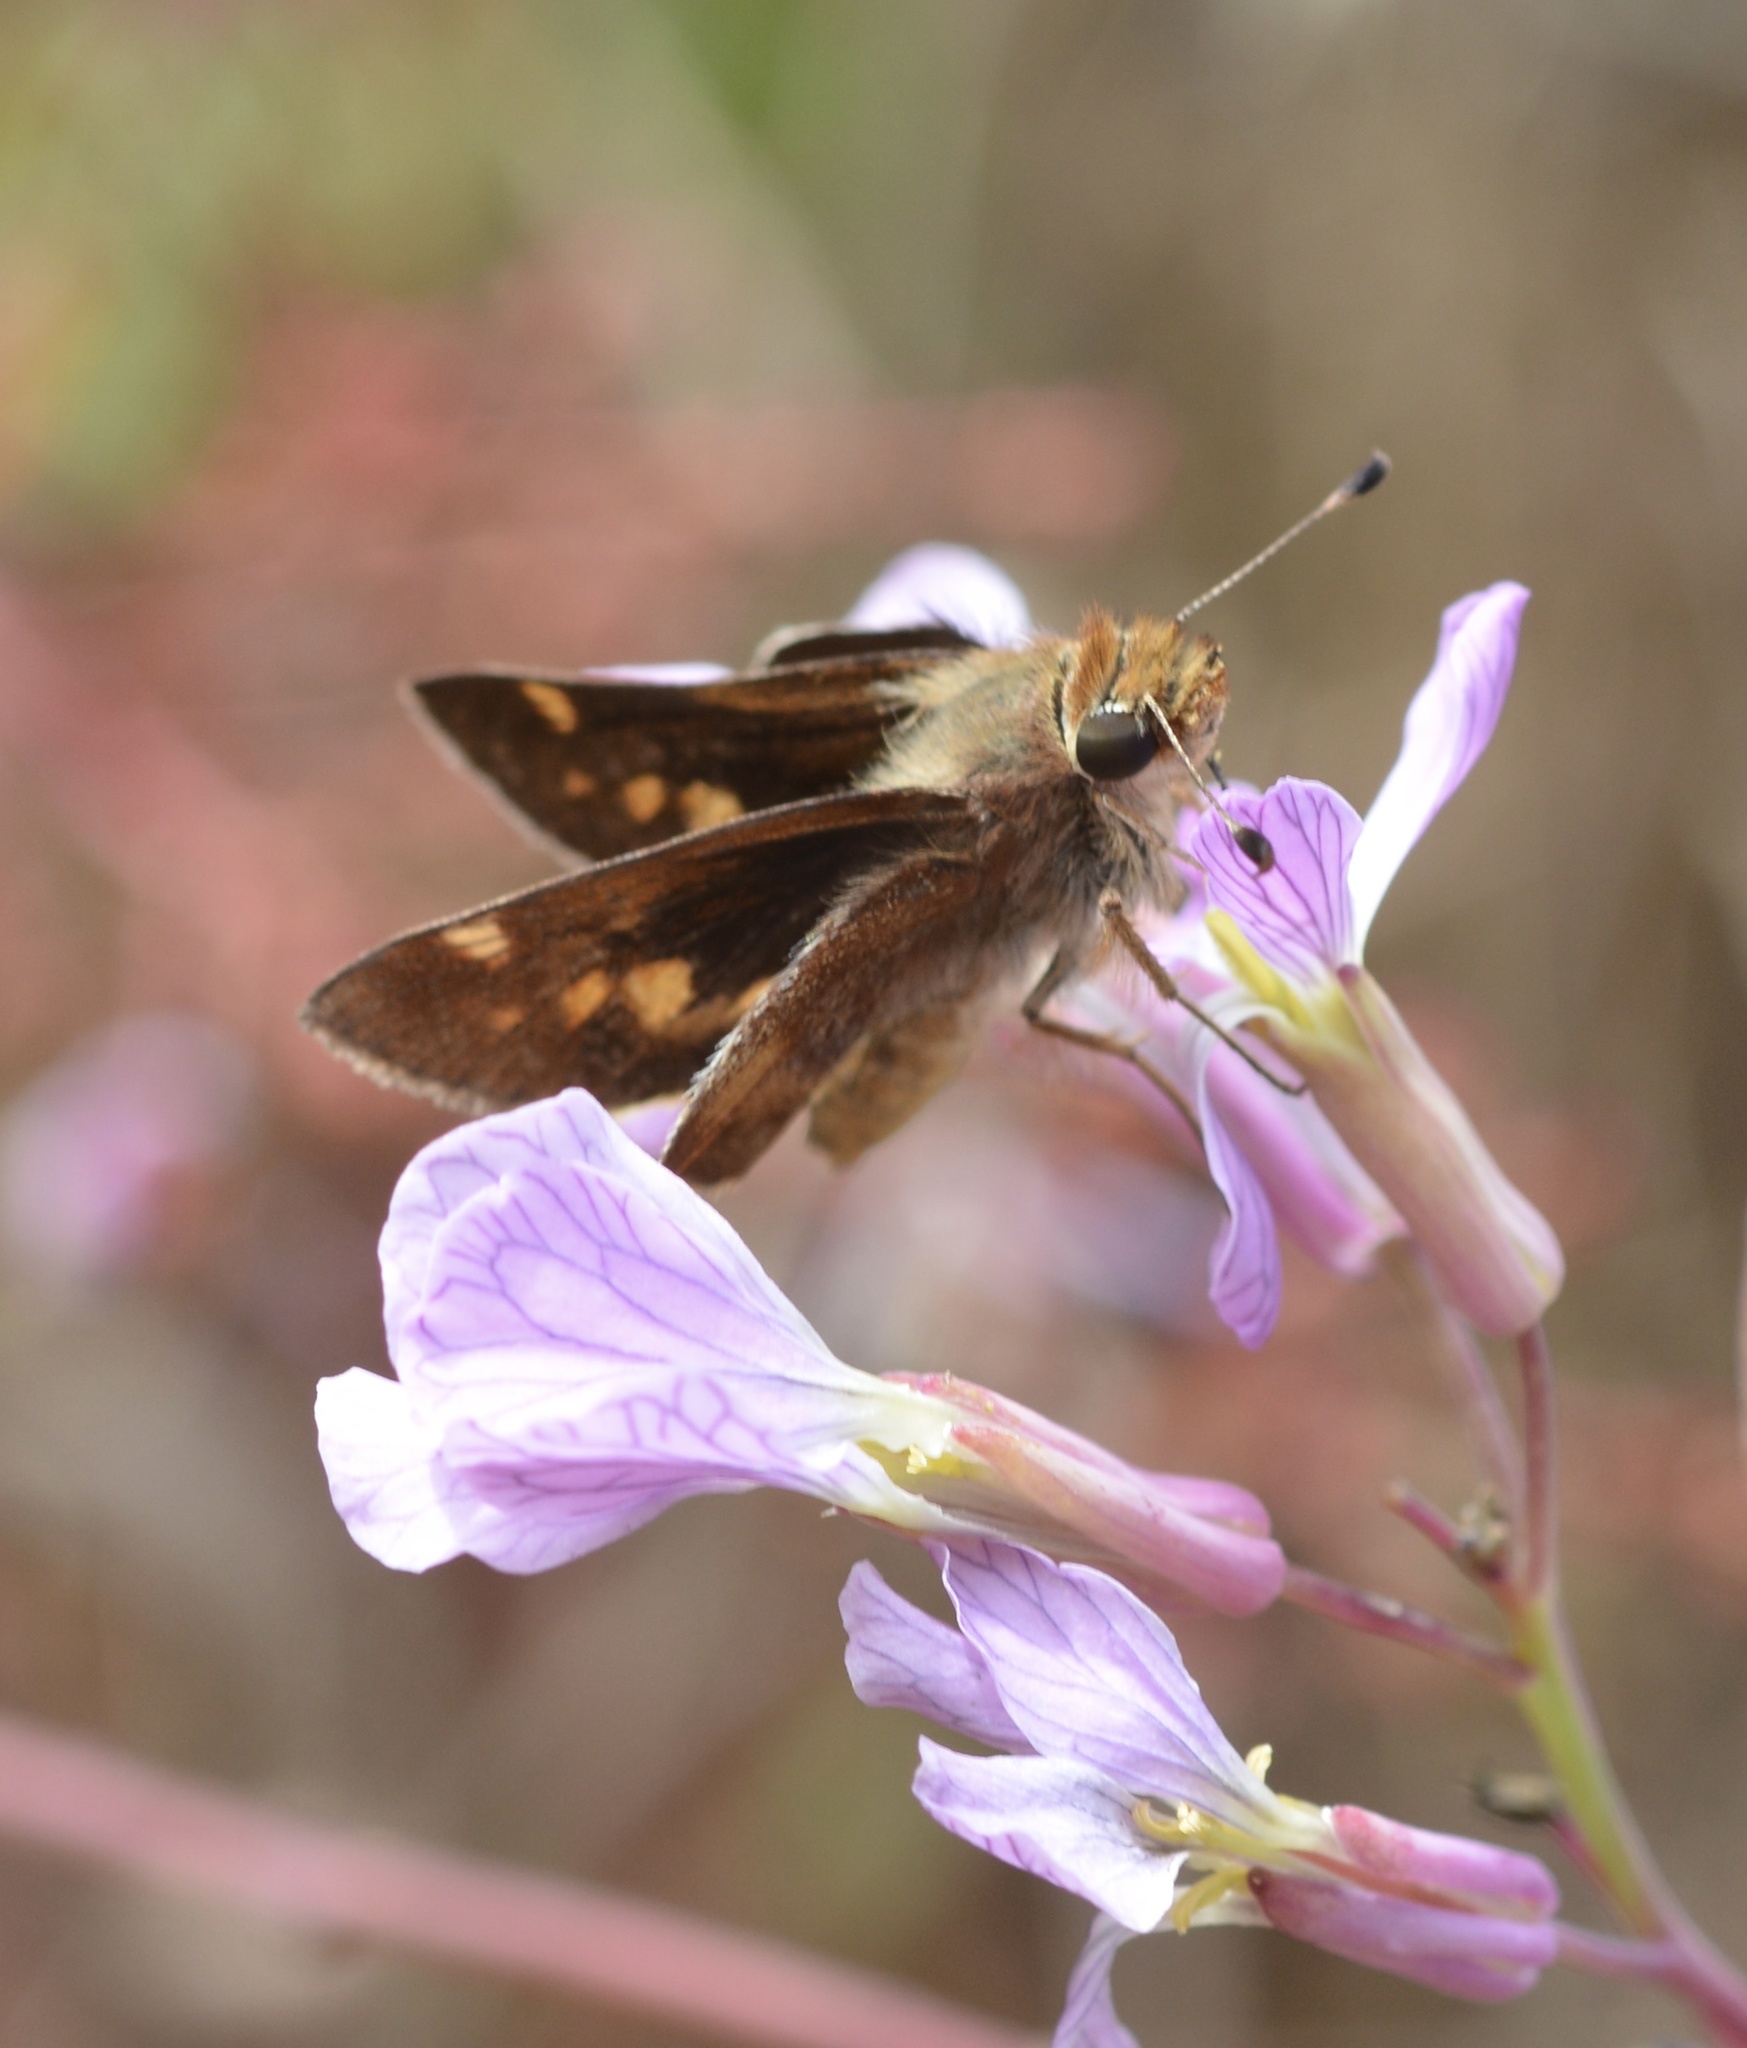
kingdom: Animalia
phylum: Arthropoda
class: Insecta
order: Lepidoptera
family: Hesperiidae
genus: Lon
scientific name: Lon melane
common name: Umber skipper
